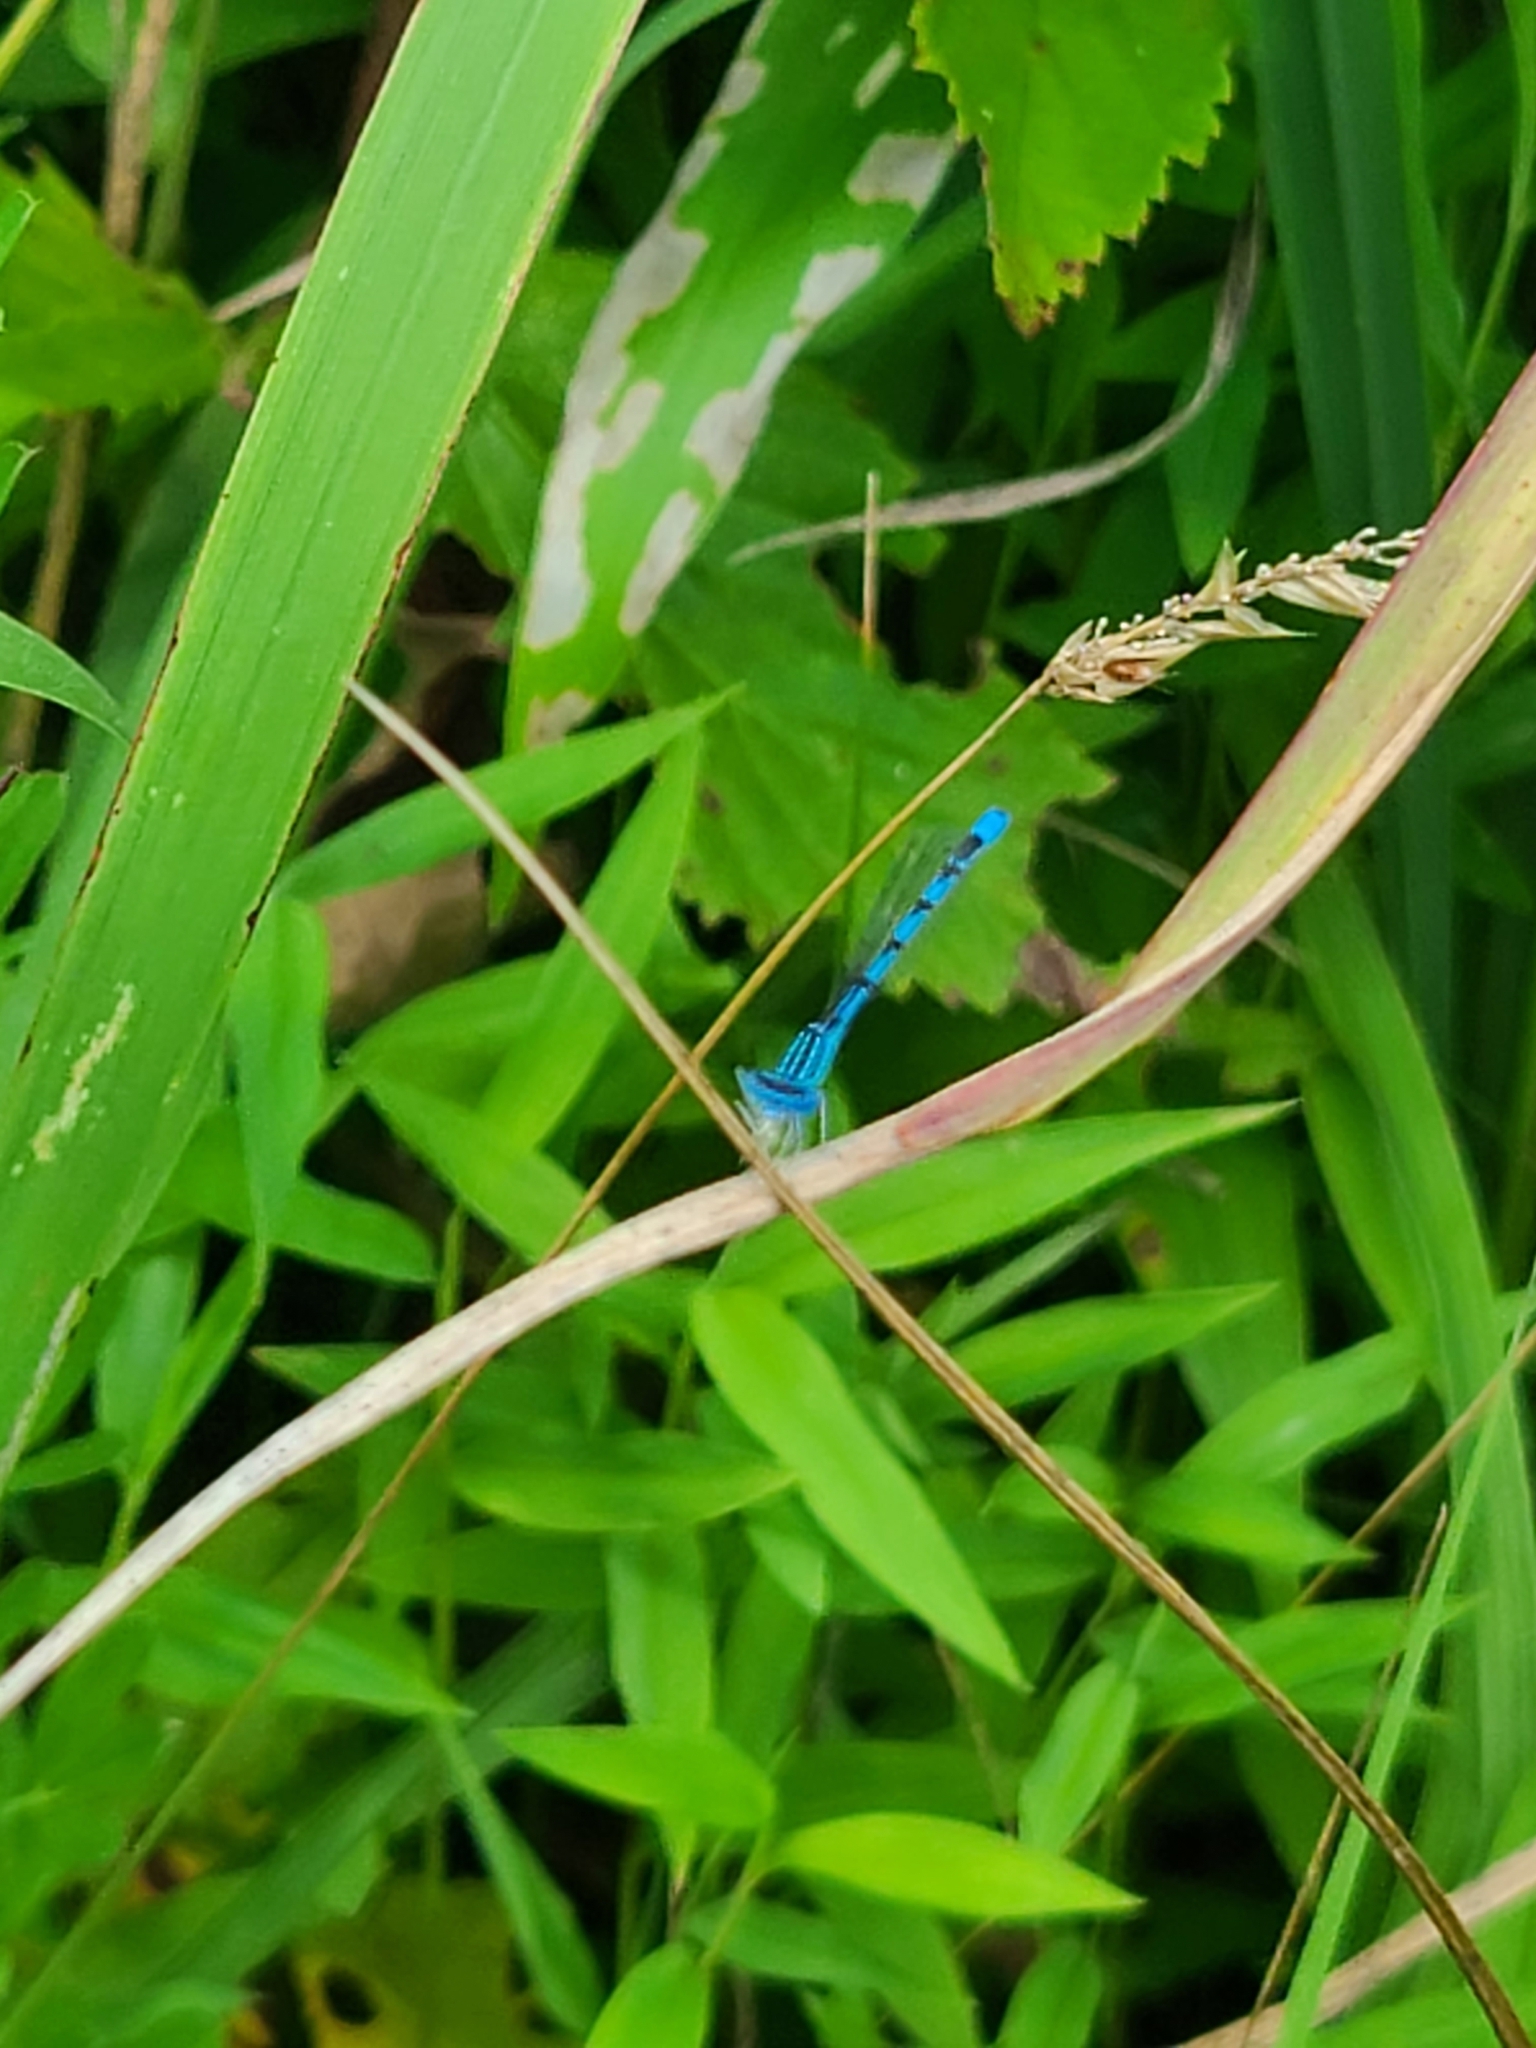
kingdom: Animalia
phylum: Arthropoda
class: Insecta
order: Odonata
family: Coenagrionidae
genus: Enallagma
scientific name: Enallagma basidens
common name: Double-striped bluet
